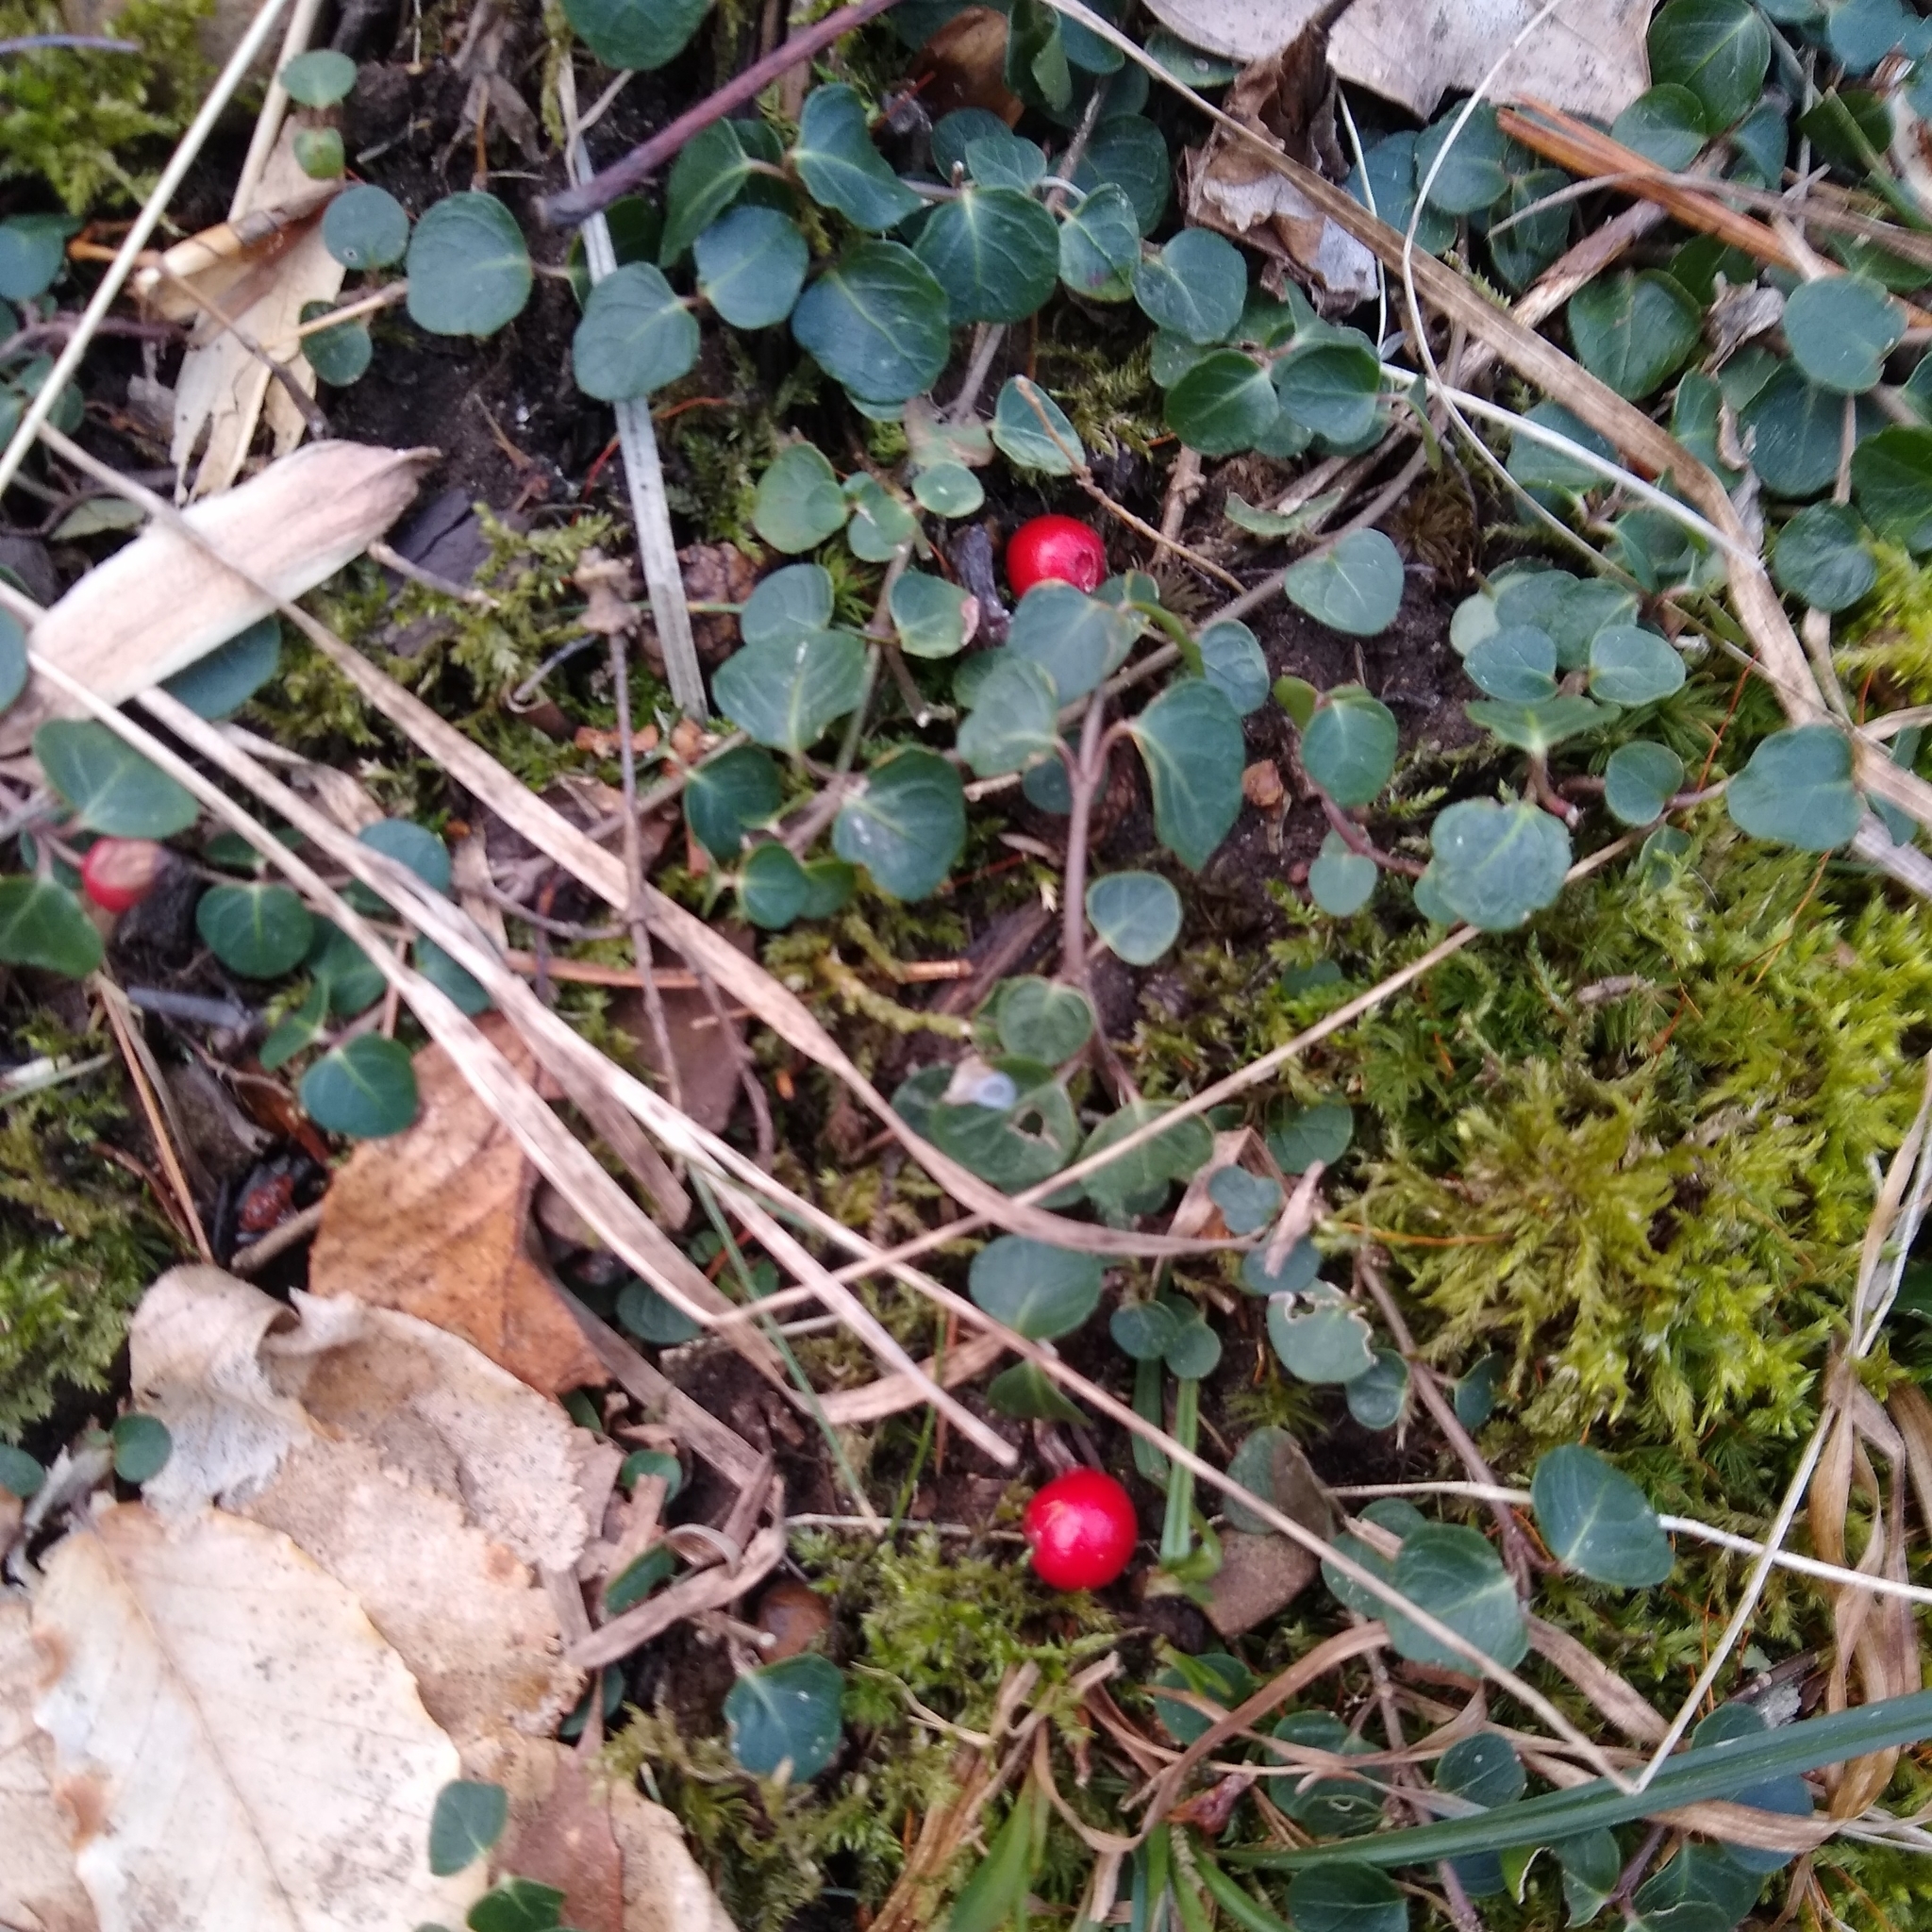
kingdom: Plantae
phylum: Tracheophyta
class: Magnoliopsida
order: Gentianales
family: Rubiaceae
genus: Mitchella
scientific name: Mitchella repens
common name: Partridge-berry
